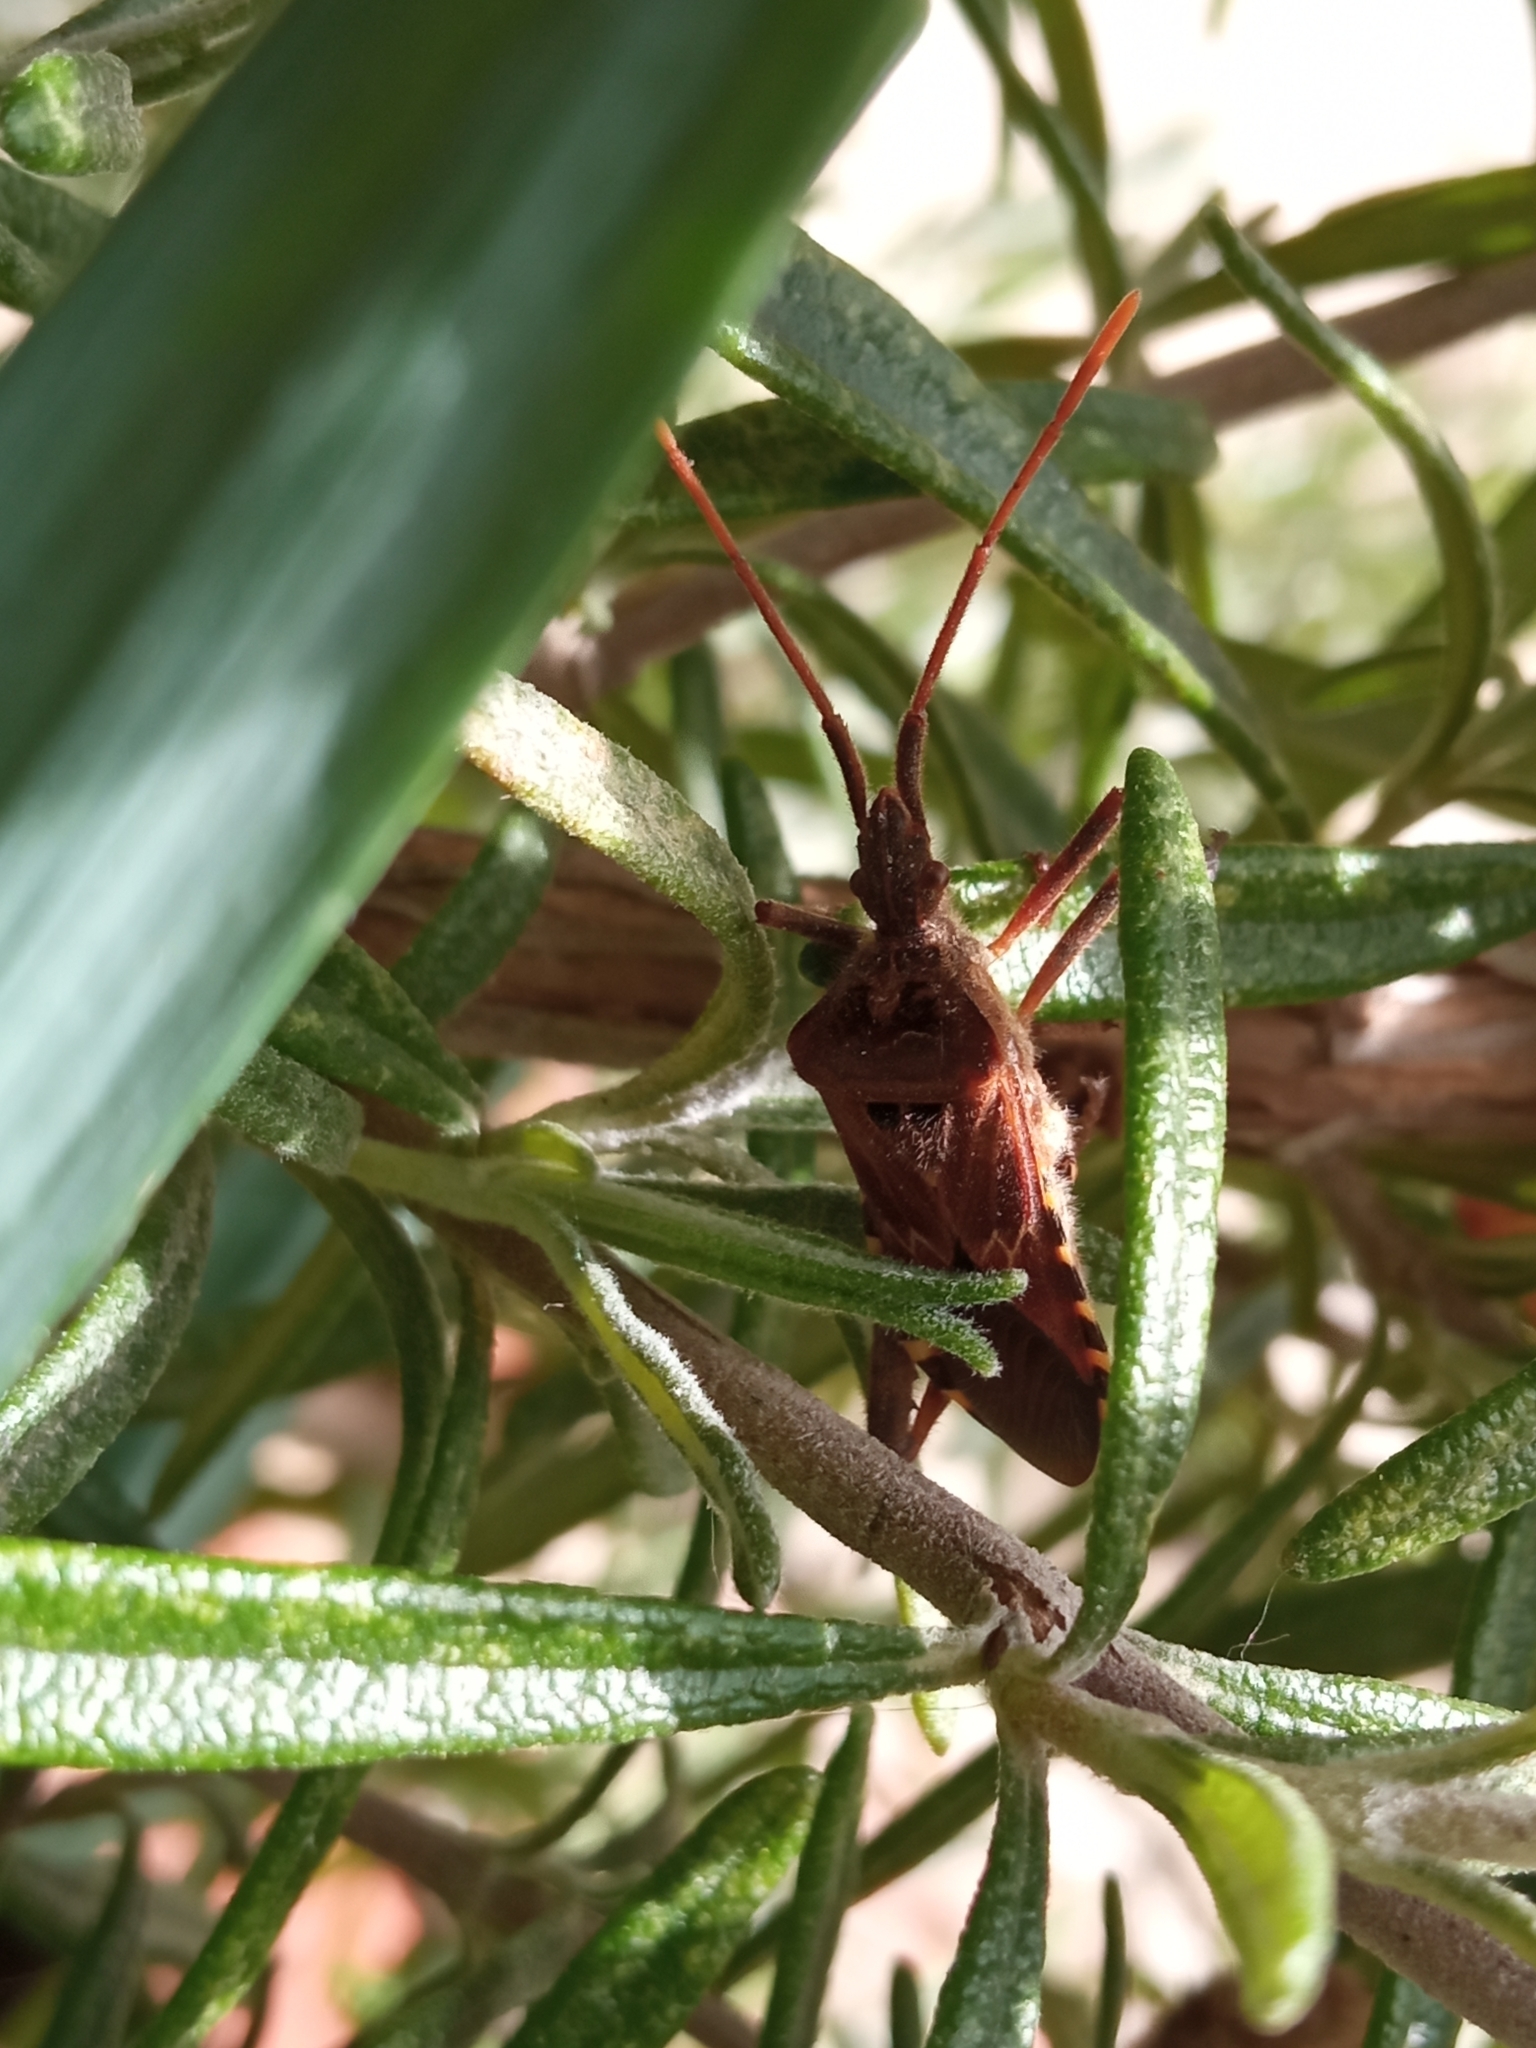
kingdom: Animalia
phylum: Arthropoda
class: Insecta
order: Hemiptera
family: Coreidae
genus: Leptoglossus
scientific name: Leptoglossus occidentalis
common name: Western conifer-seed bug
